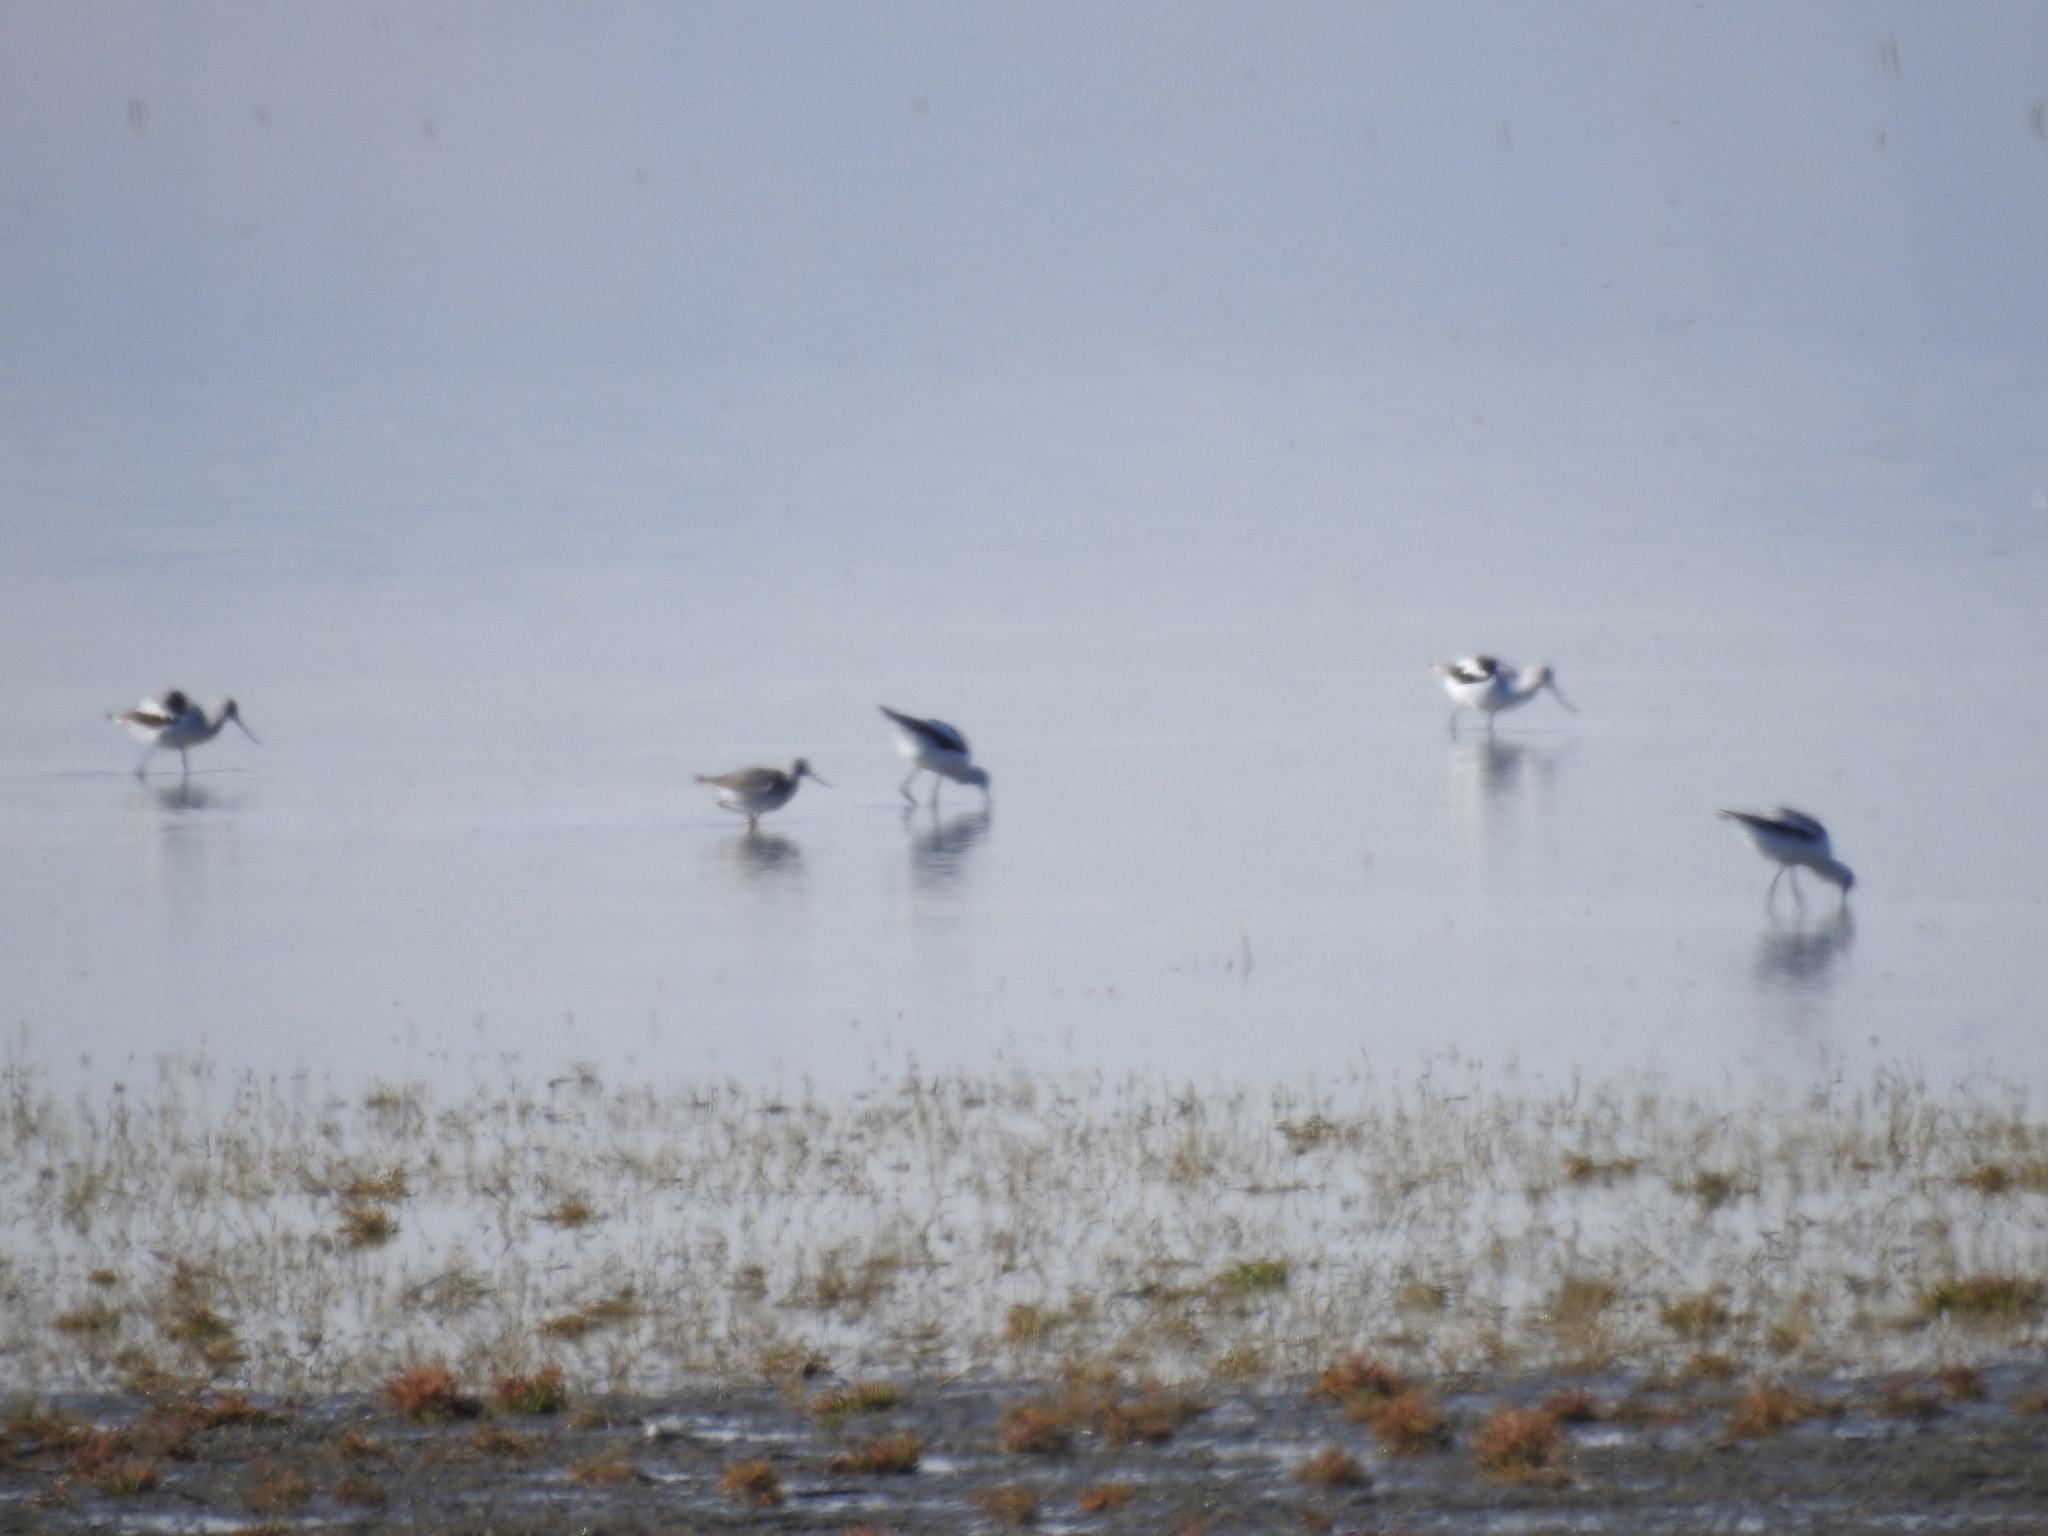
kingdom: Animalia
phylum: Chordata
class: Aves
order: Charadriiformes
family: Recurvirostridae
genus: Recurvirostra
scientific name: Recurvirostra americana
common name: American avocet
